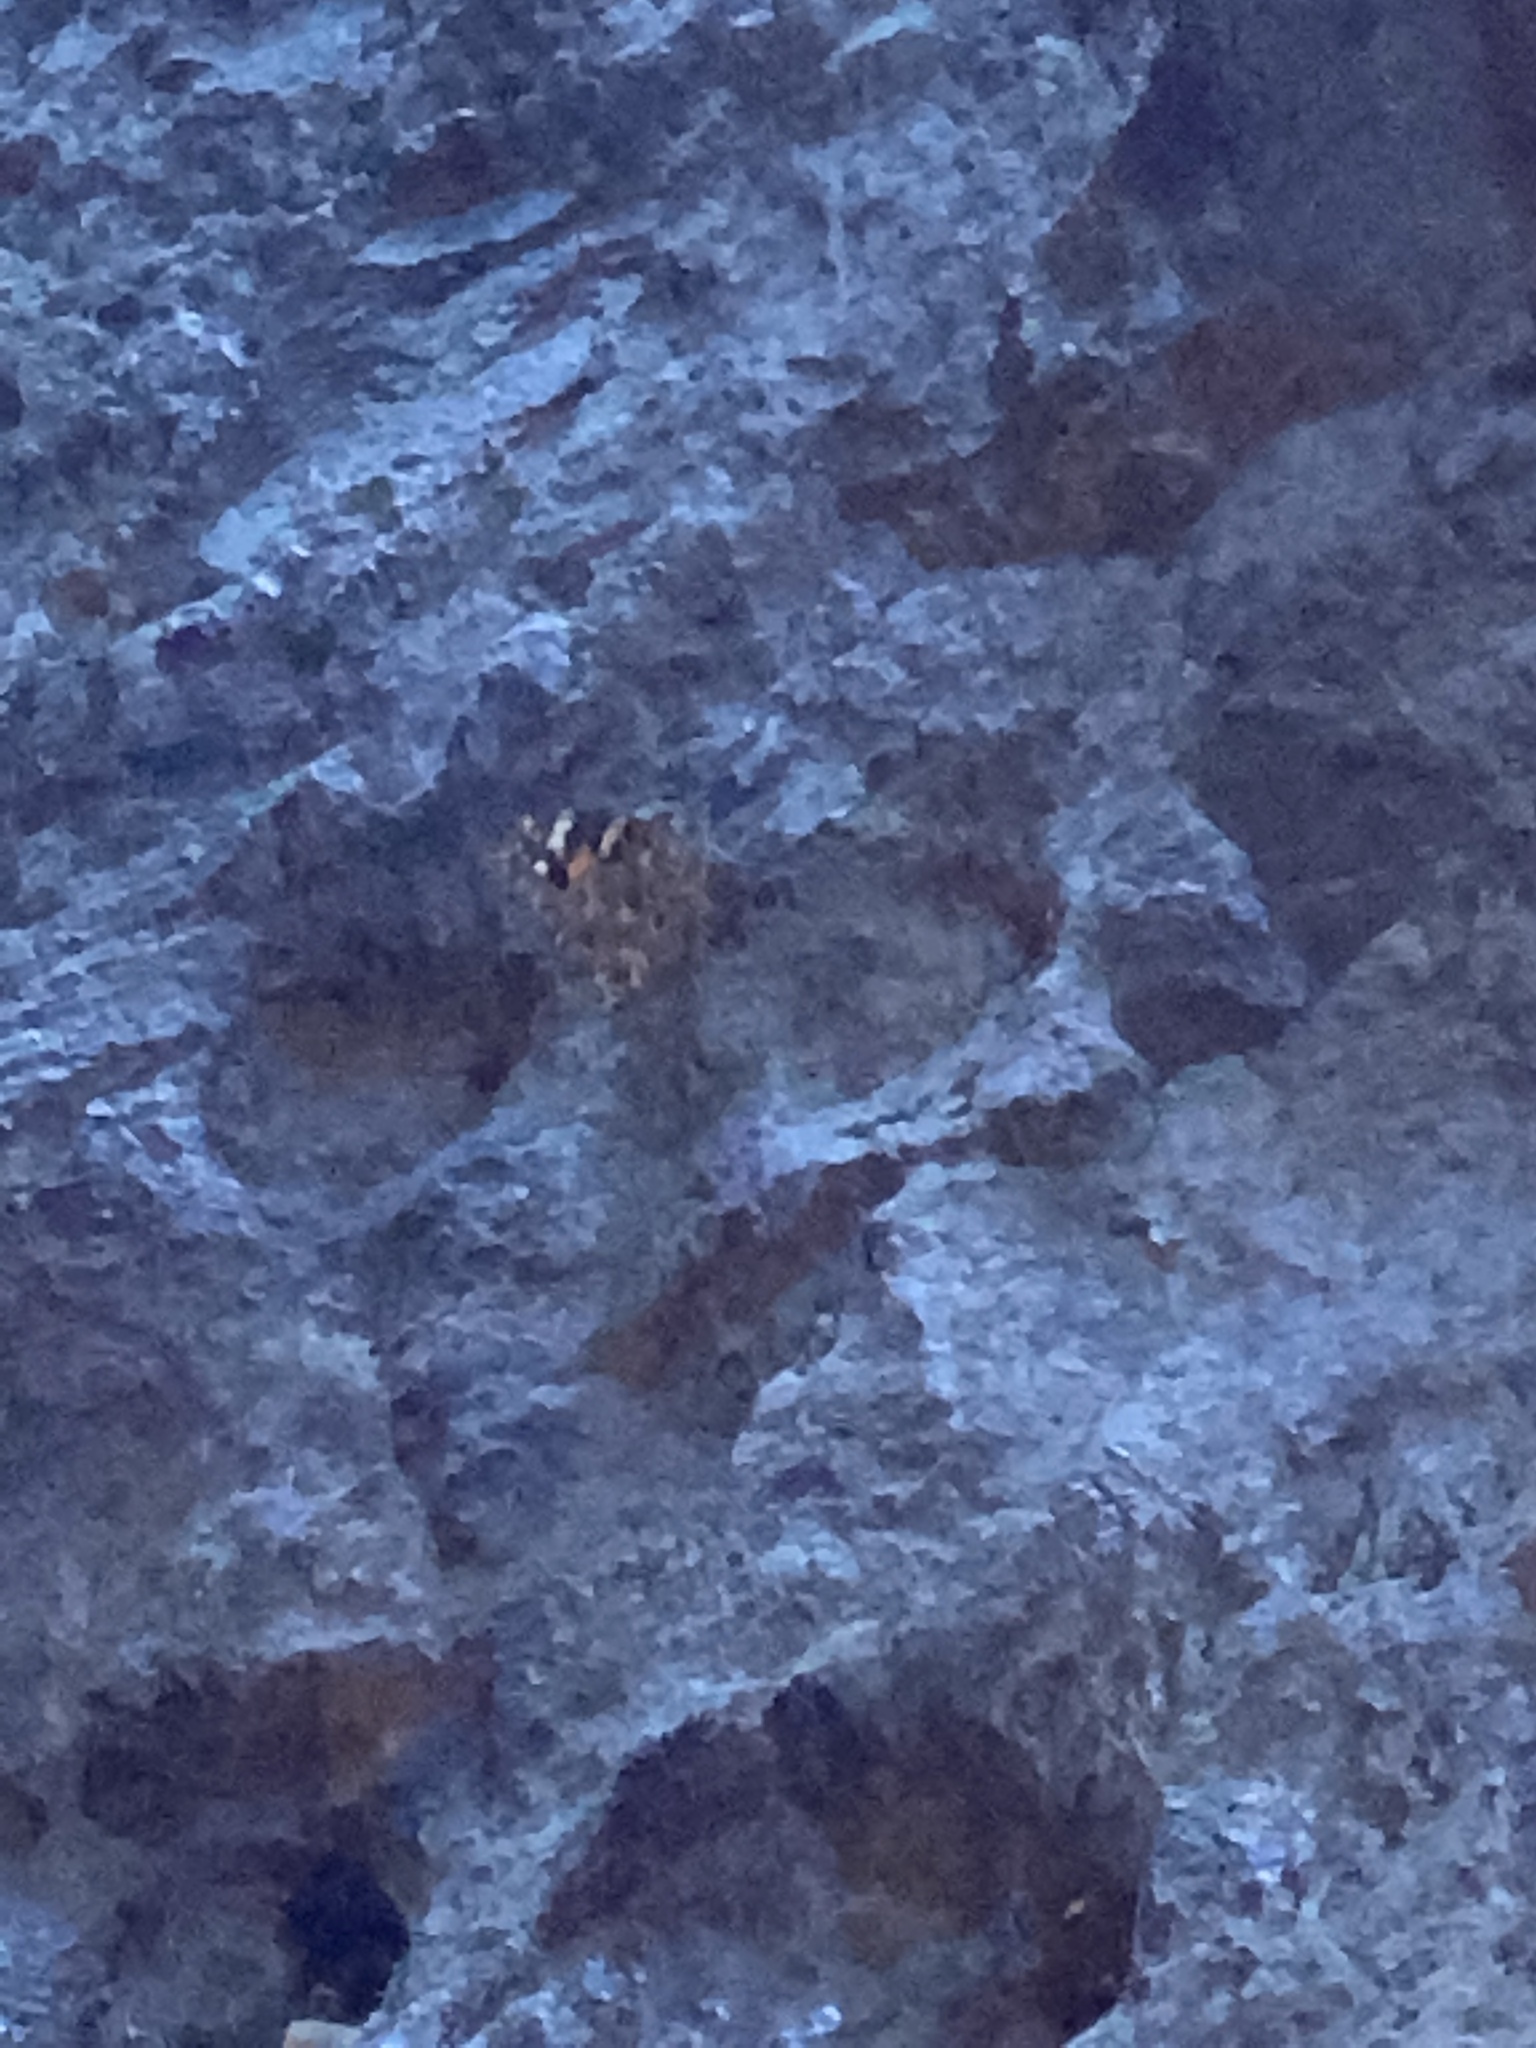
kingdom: Animalia
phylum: Arthropoda
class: Insecta
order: Lepidoptera
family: Nymphalidae
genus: Vanessa
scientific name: Vanessa cardui
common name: Painted lady
